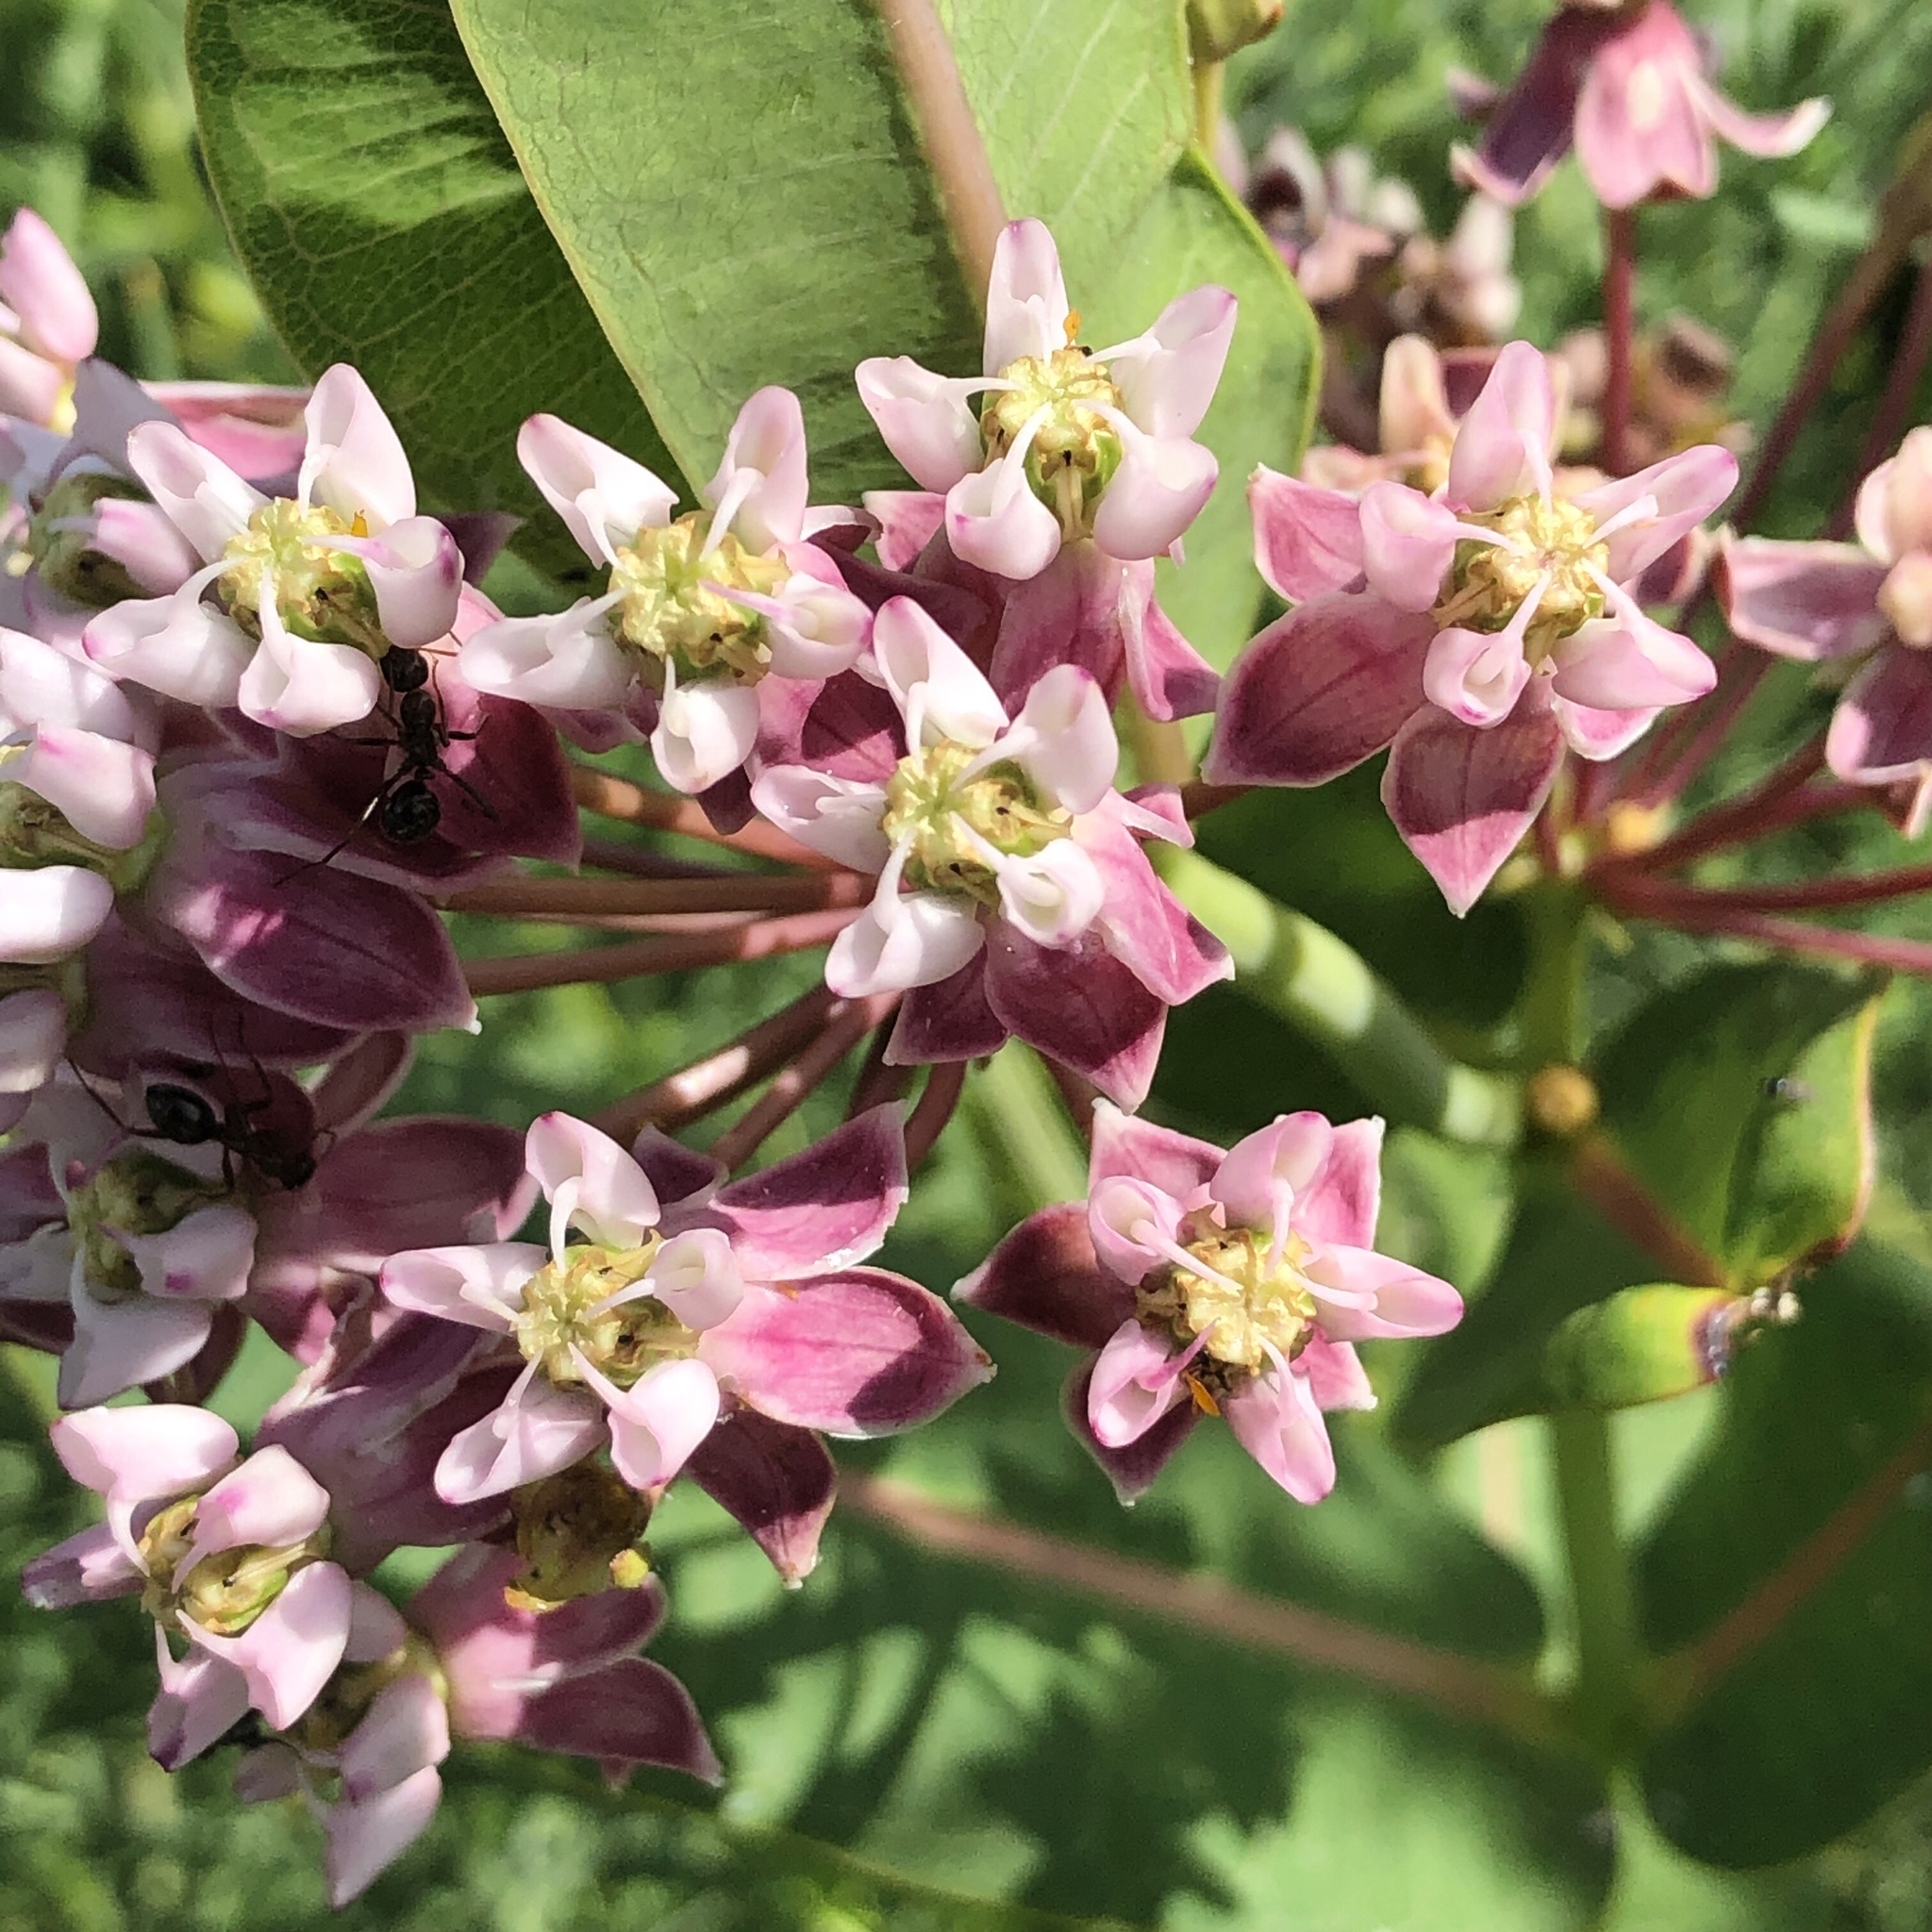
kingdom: Plantae
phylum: Tracheophyta
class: Magnoliopsida
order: Gentianales
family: Apocynaceae
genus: Asclepias
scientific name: Asclepias sullivantii
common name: Prairie milkweed
